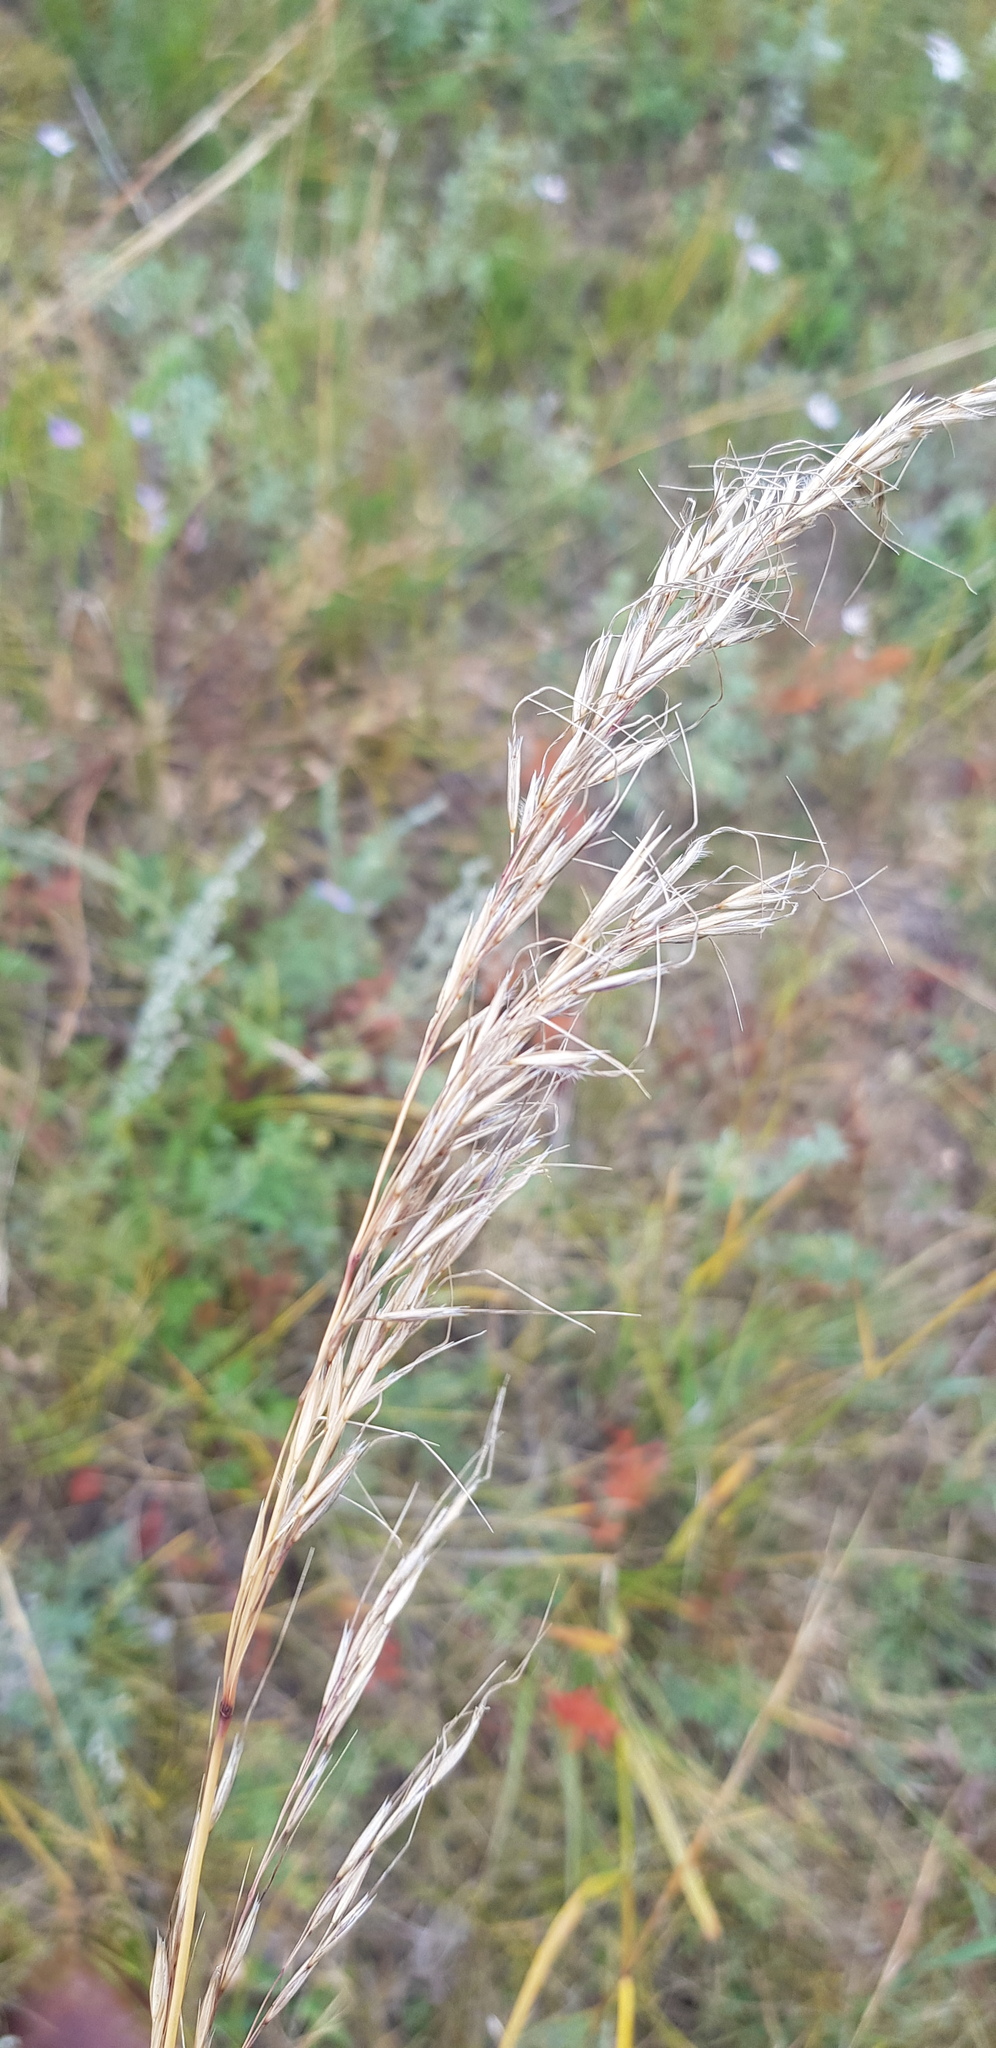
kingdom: Plantae
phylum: Tracheophyta
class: Liliopsida
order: Poales
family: Poaceae
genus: Achnatherum
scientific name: Achnatherum sibiricum
